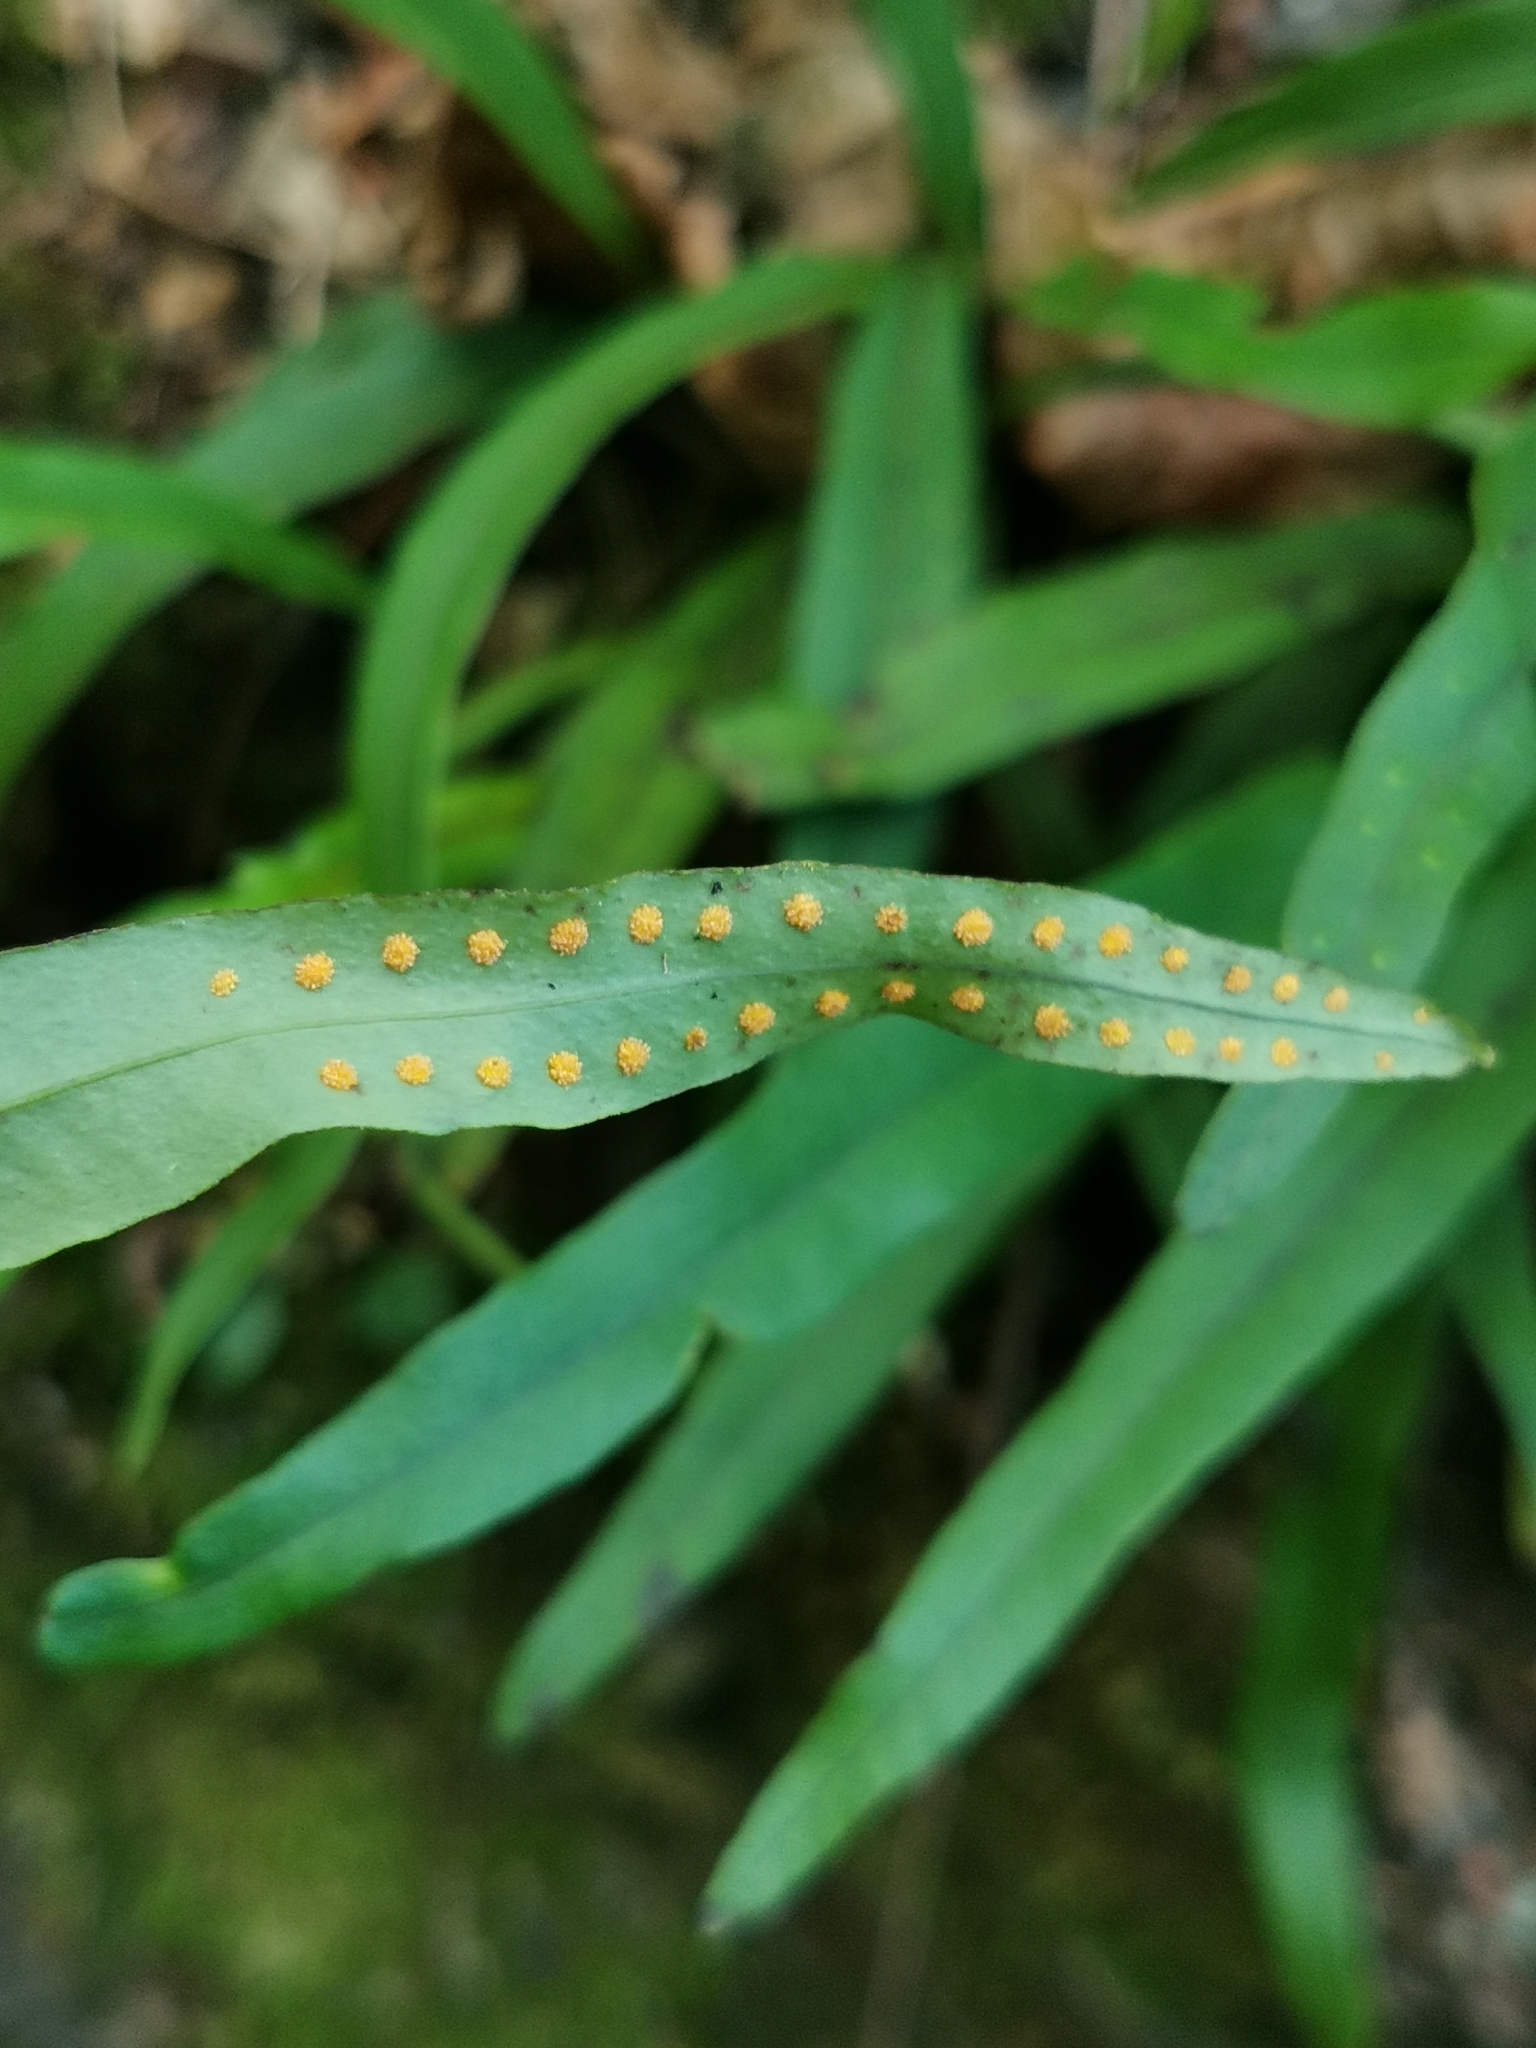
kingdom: Plantae
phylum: Tracheophyta
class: Polypodiopsida
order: Polypodiales
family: Polypodiaceae
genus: Lepisorus
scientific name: Lepisorus ussuriensis
